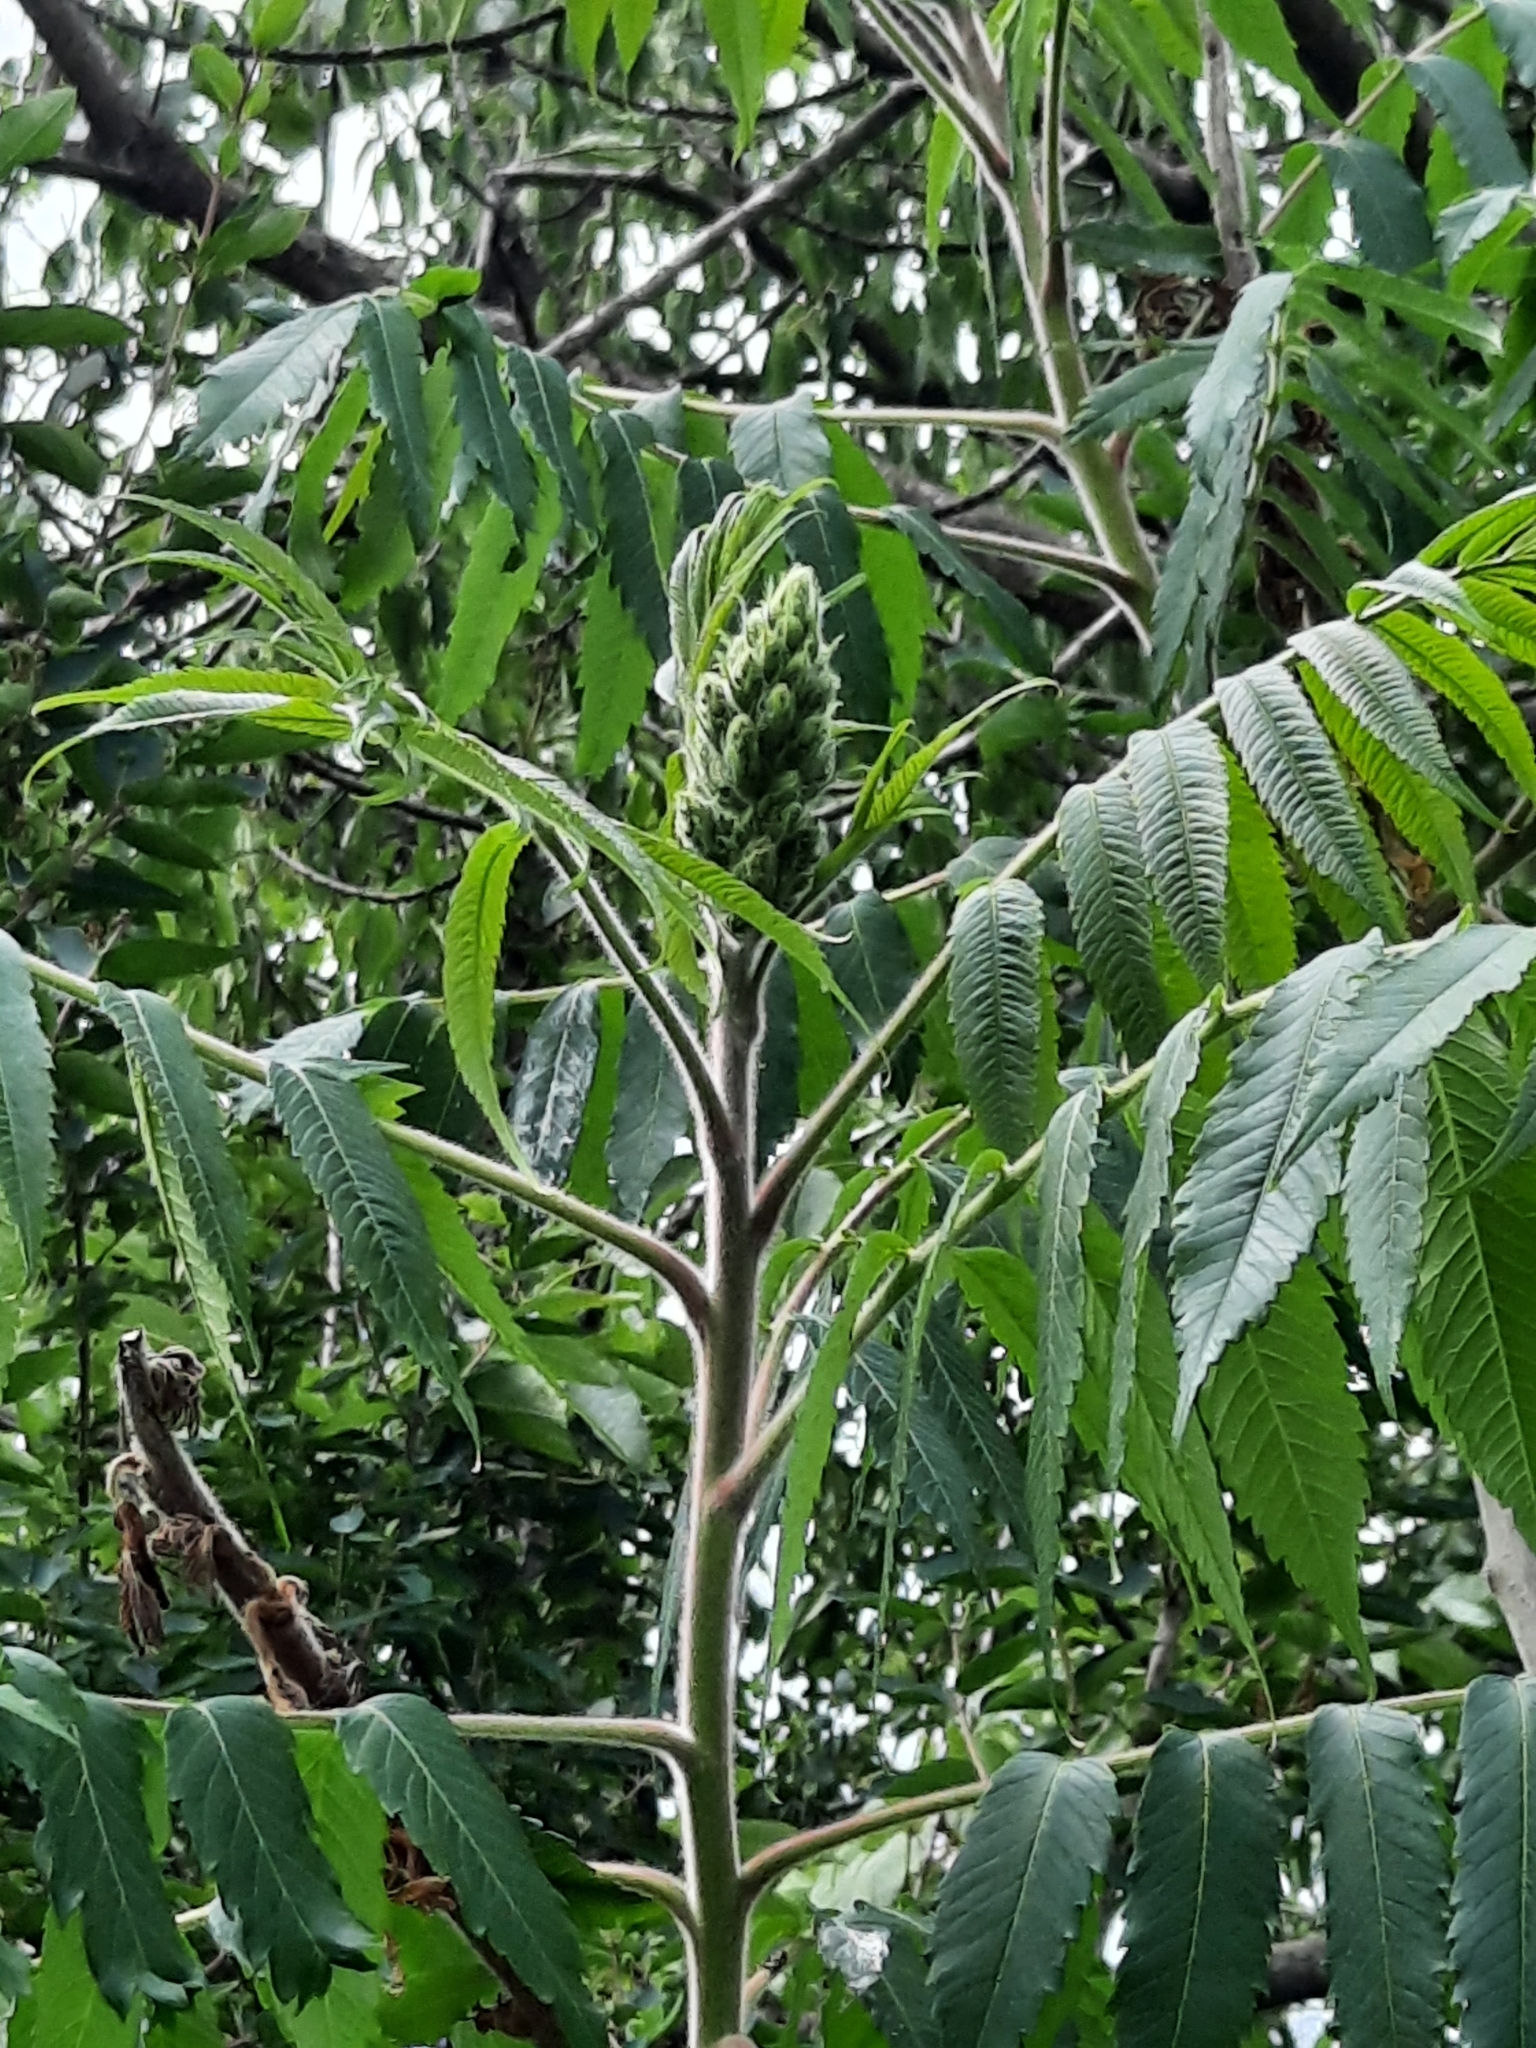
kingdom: Plantae
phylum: Tracheophyta
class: Magnoliopsida
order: Sapindales
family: Anacardiaceae
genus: Rhus
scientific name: Rhus typhina
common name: Staghorn sumac
